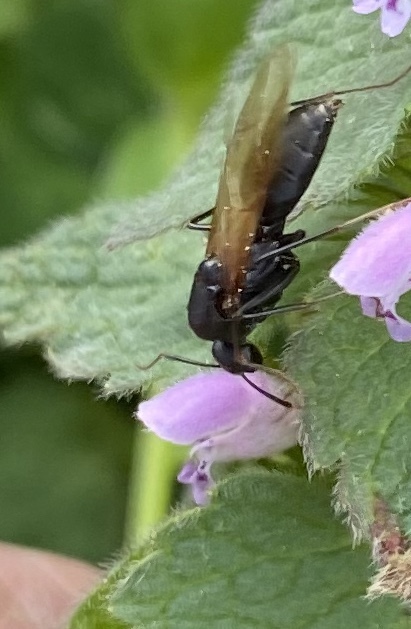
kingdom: Animalia
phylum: Arthropoda
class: Insecta
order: Hymenoptera
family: Formicidae
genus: Camponotus
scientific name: Camponotus pennsylvanicus
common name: Black carpenter ant
